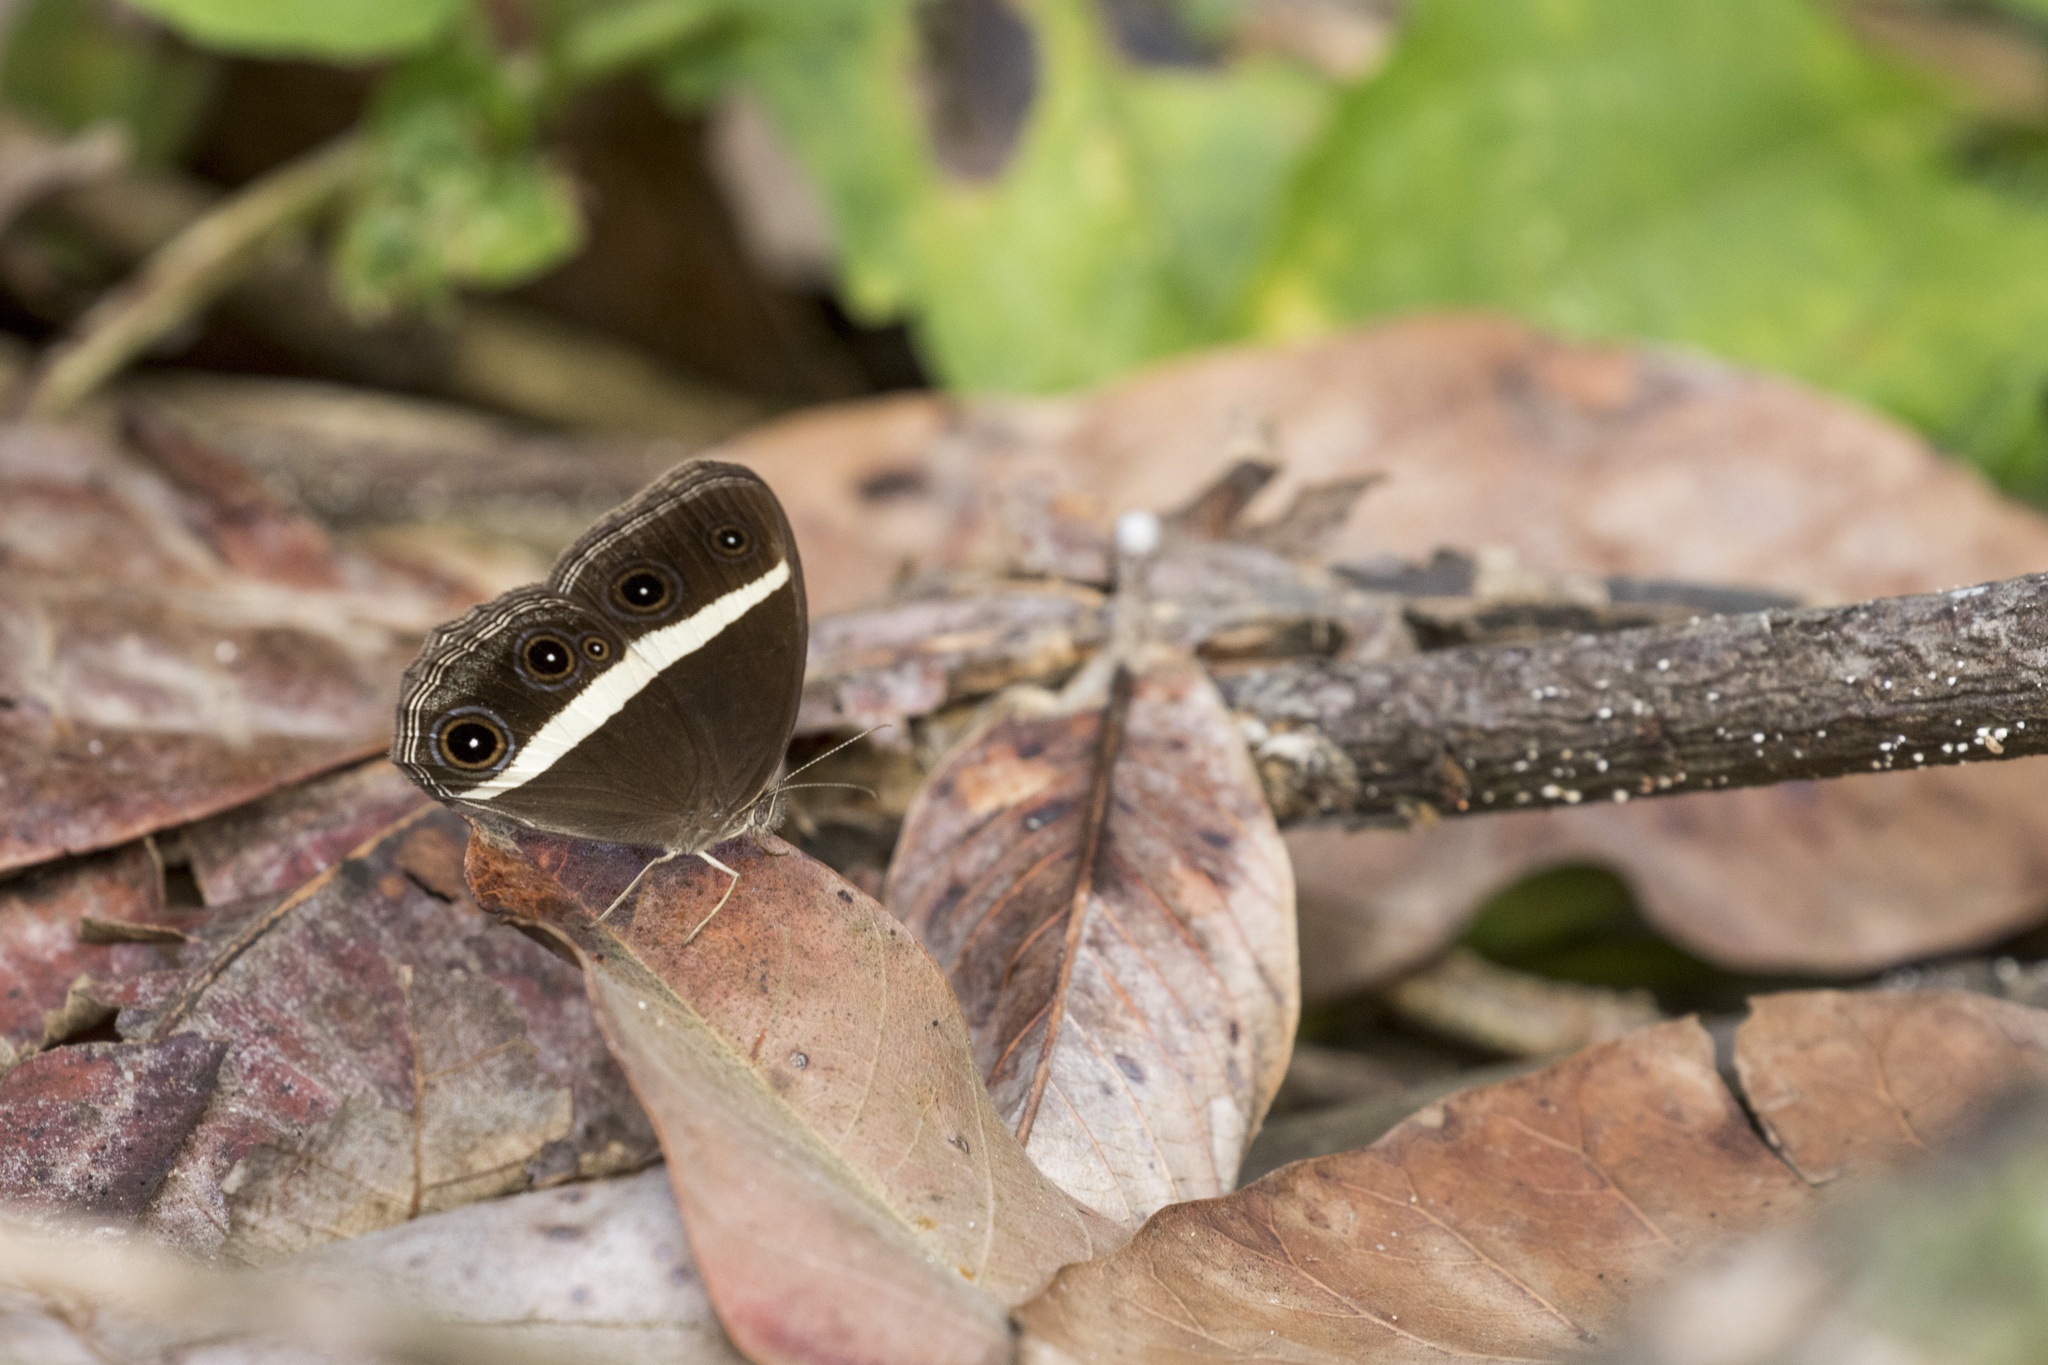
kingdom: Animalia
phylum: Arthropoda
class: Insecta
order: Lepidoptera
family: Nymphalidae
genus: Orsotriaena
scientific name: Orsotriaena medus
